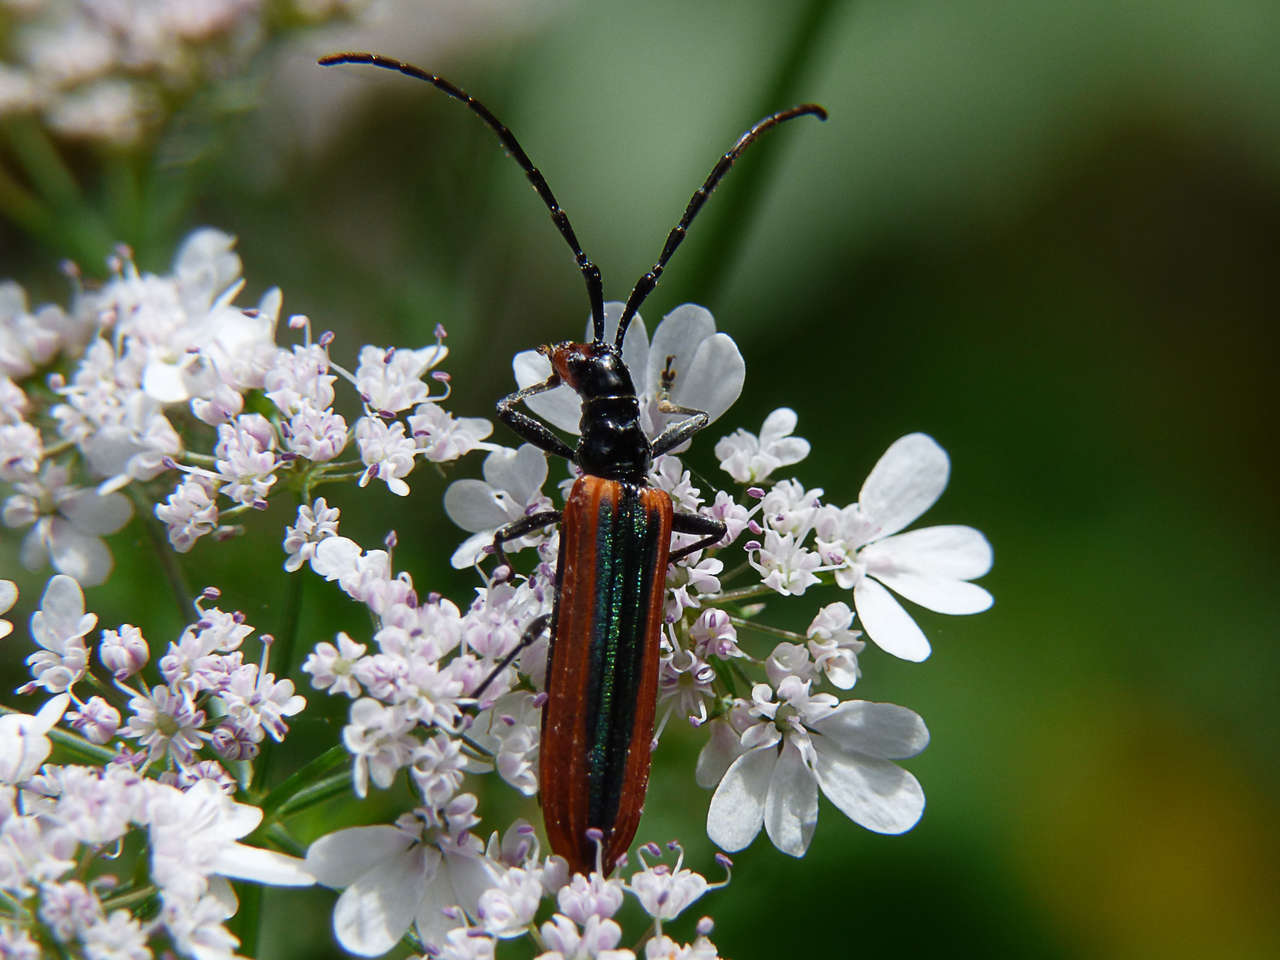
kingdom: Animalia
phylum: Arthropoda
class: Insecta
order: Coleoptera
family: Cerambycidae
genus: Stenoderus
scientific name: Stenoderus suturalis
